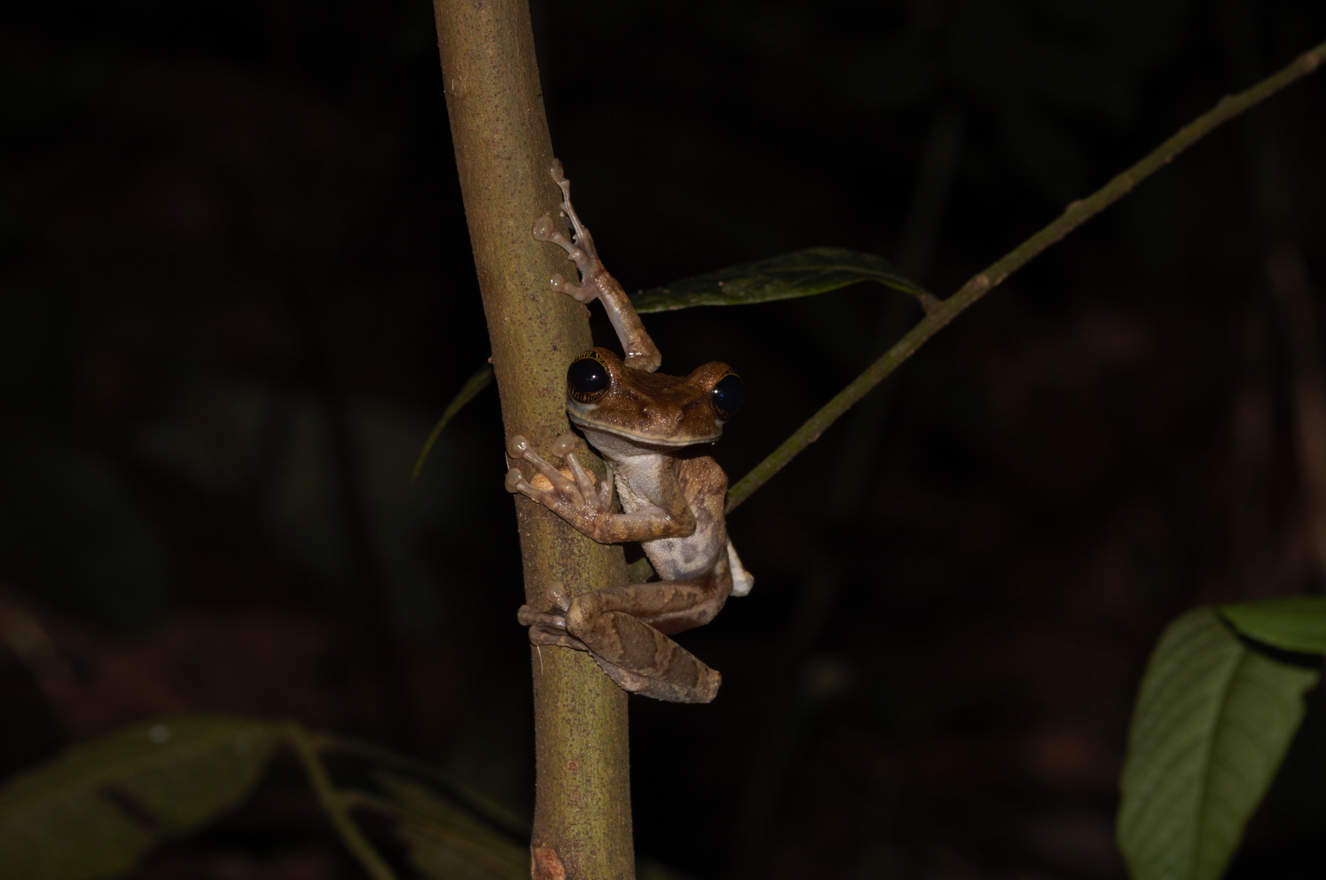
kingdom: Animalia
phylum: Chordata
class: Amphibia
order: Anura
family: Hylidae
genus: Osteocephalus
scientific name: Osteocephalus taurinus
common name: Manaus slender-legged treefrog
